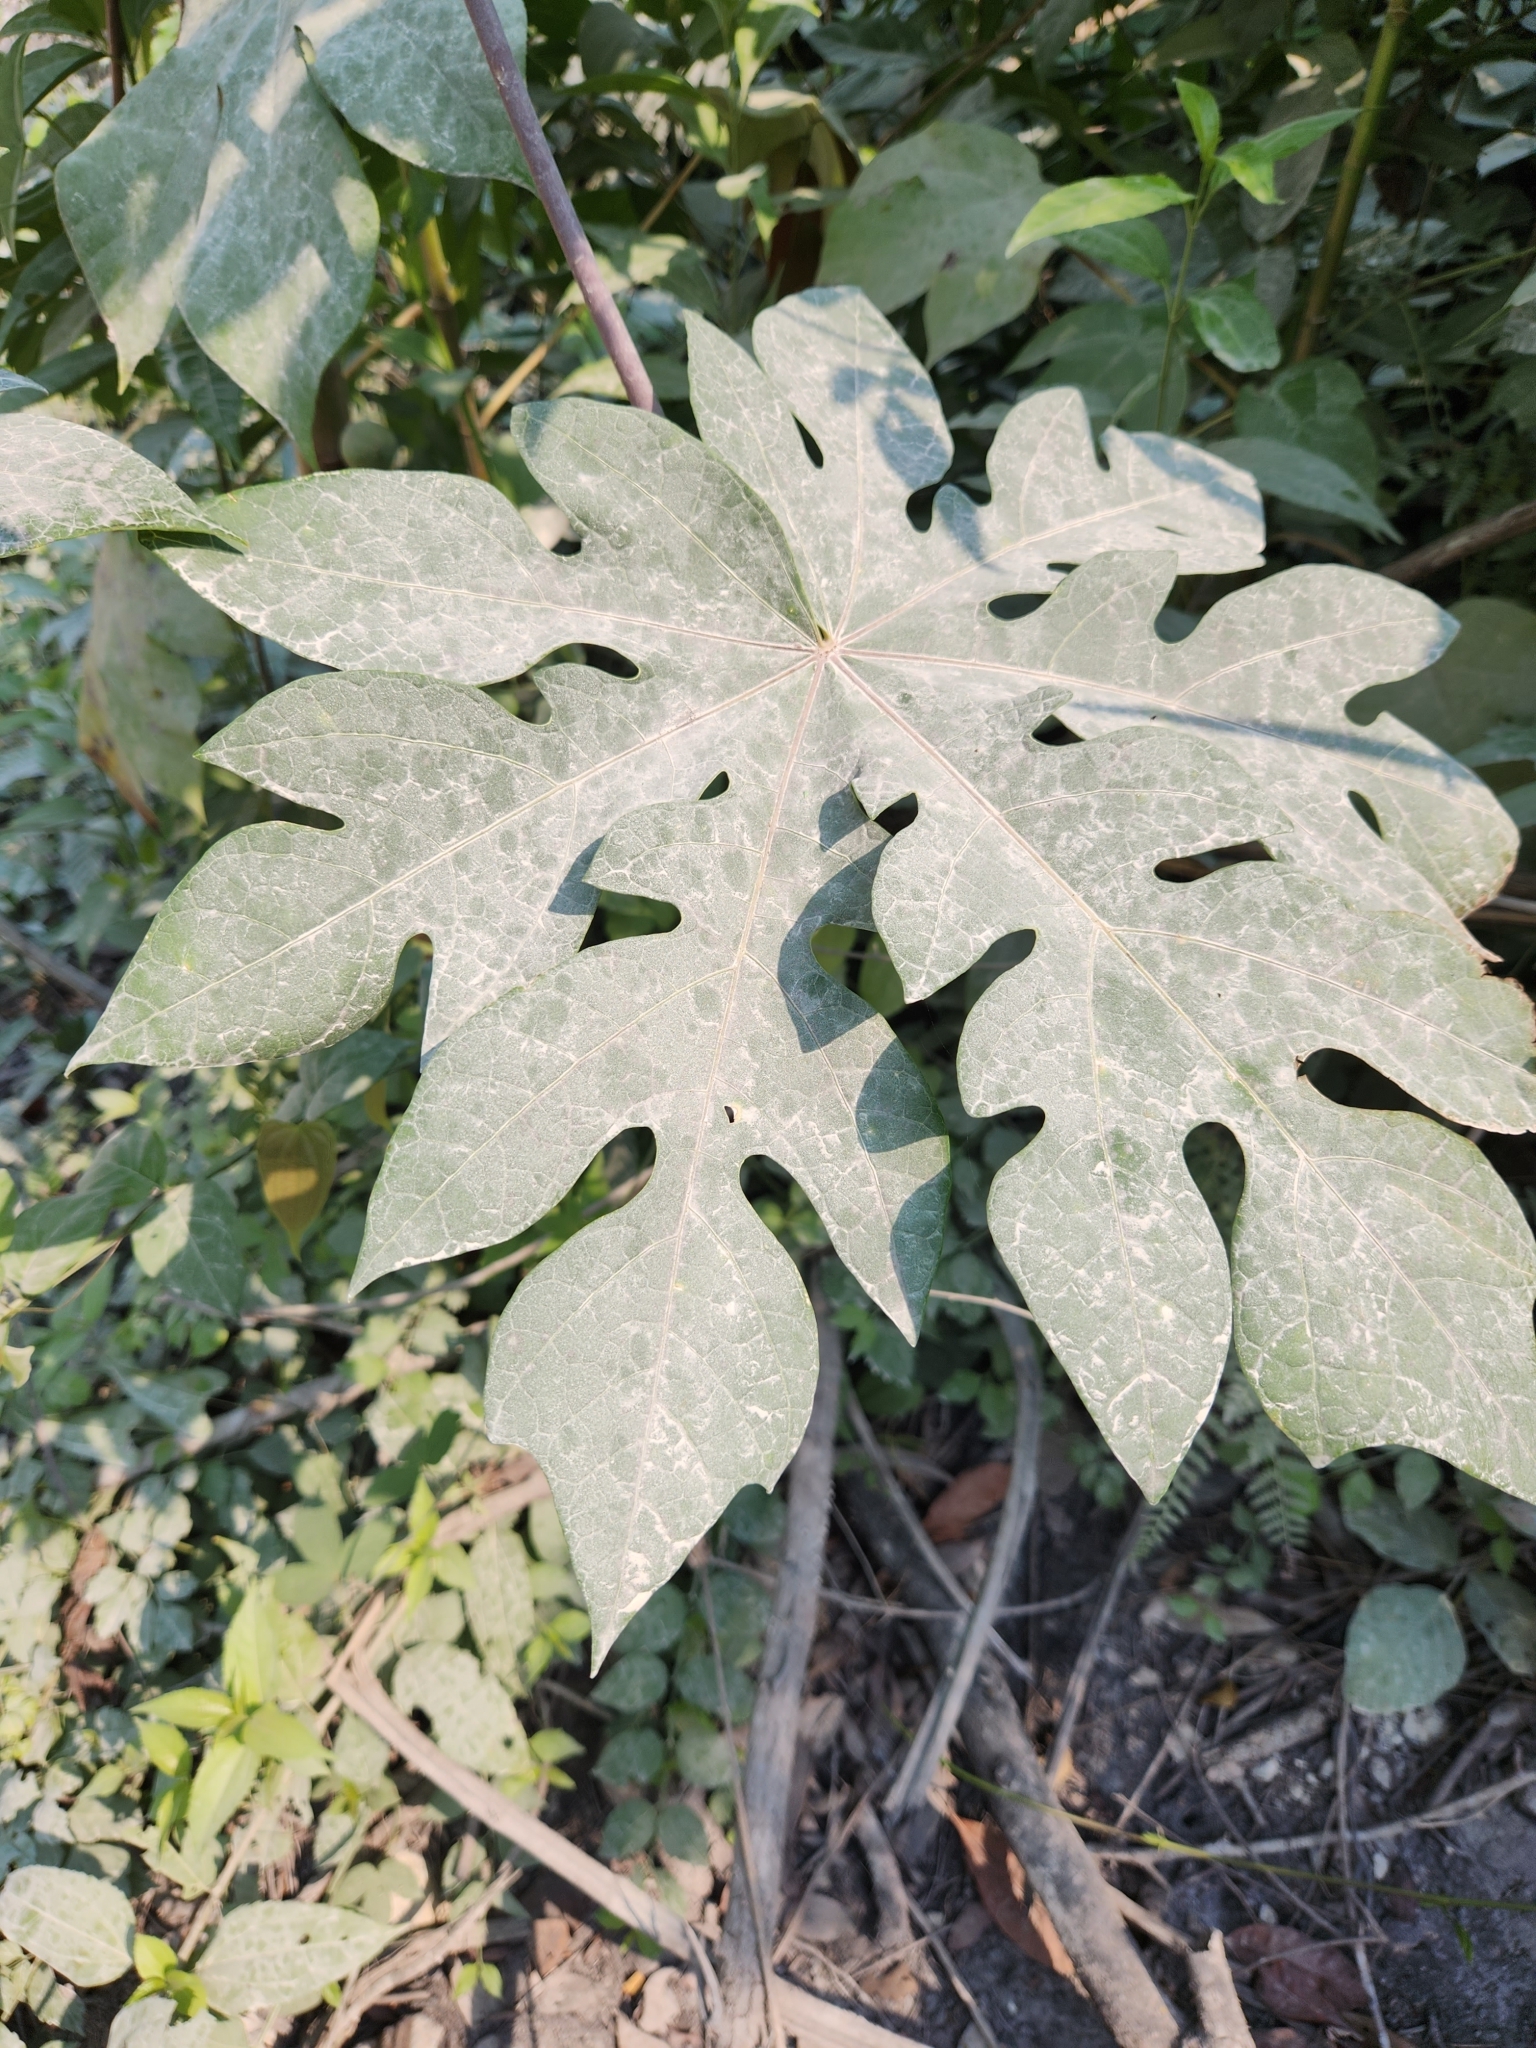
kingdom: Plantae
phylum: Tracheophyta
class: Magnoliopsida
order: Brassicales
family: Caricaceae
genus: Carica
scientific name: Carica papaya
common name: Papaya
